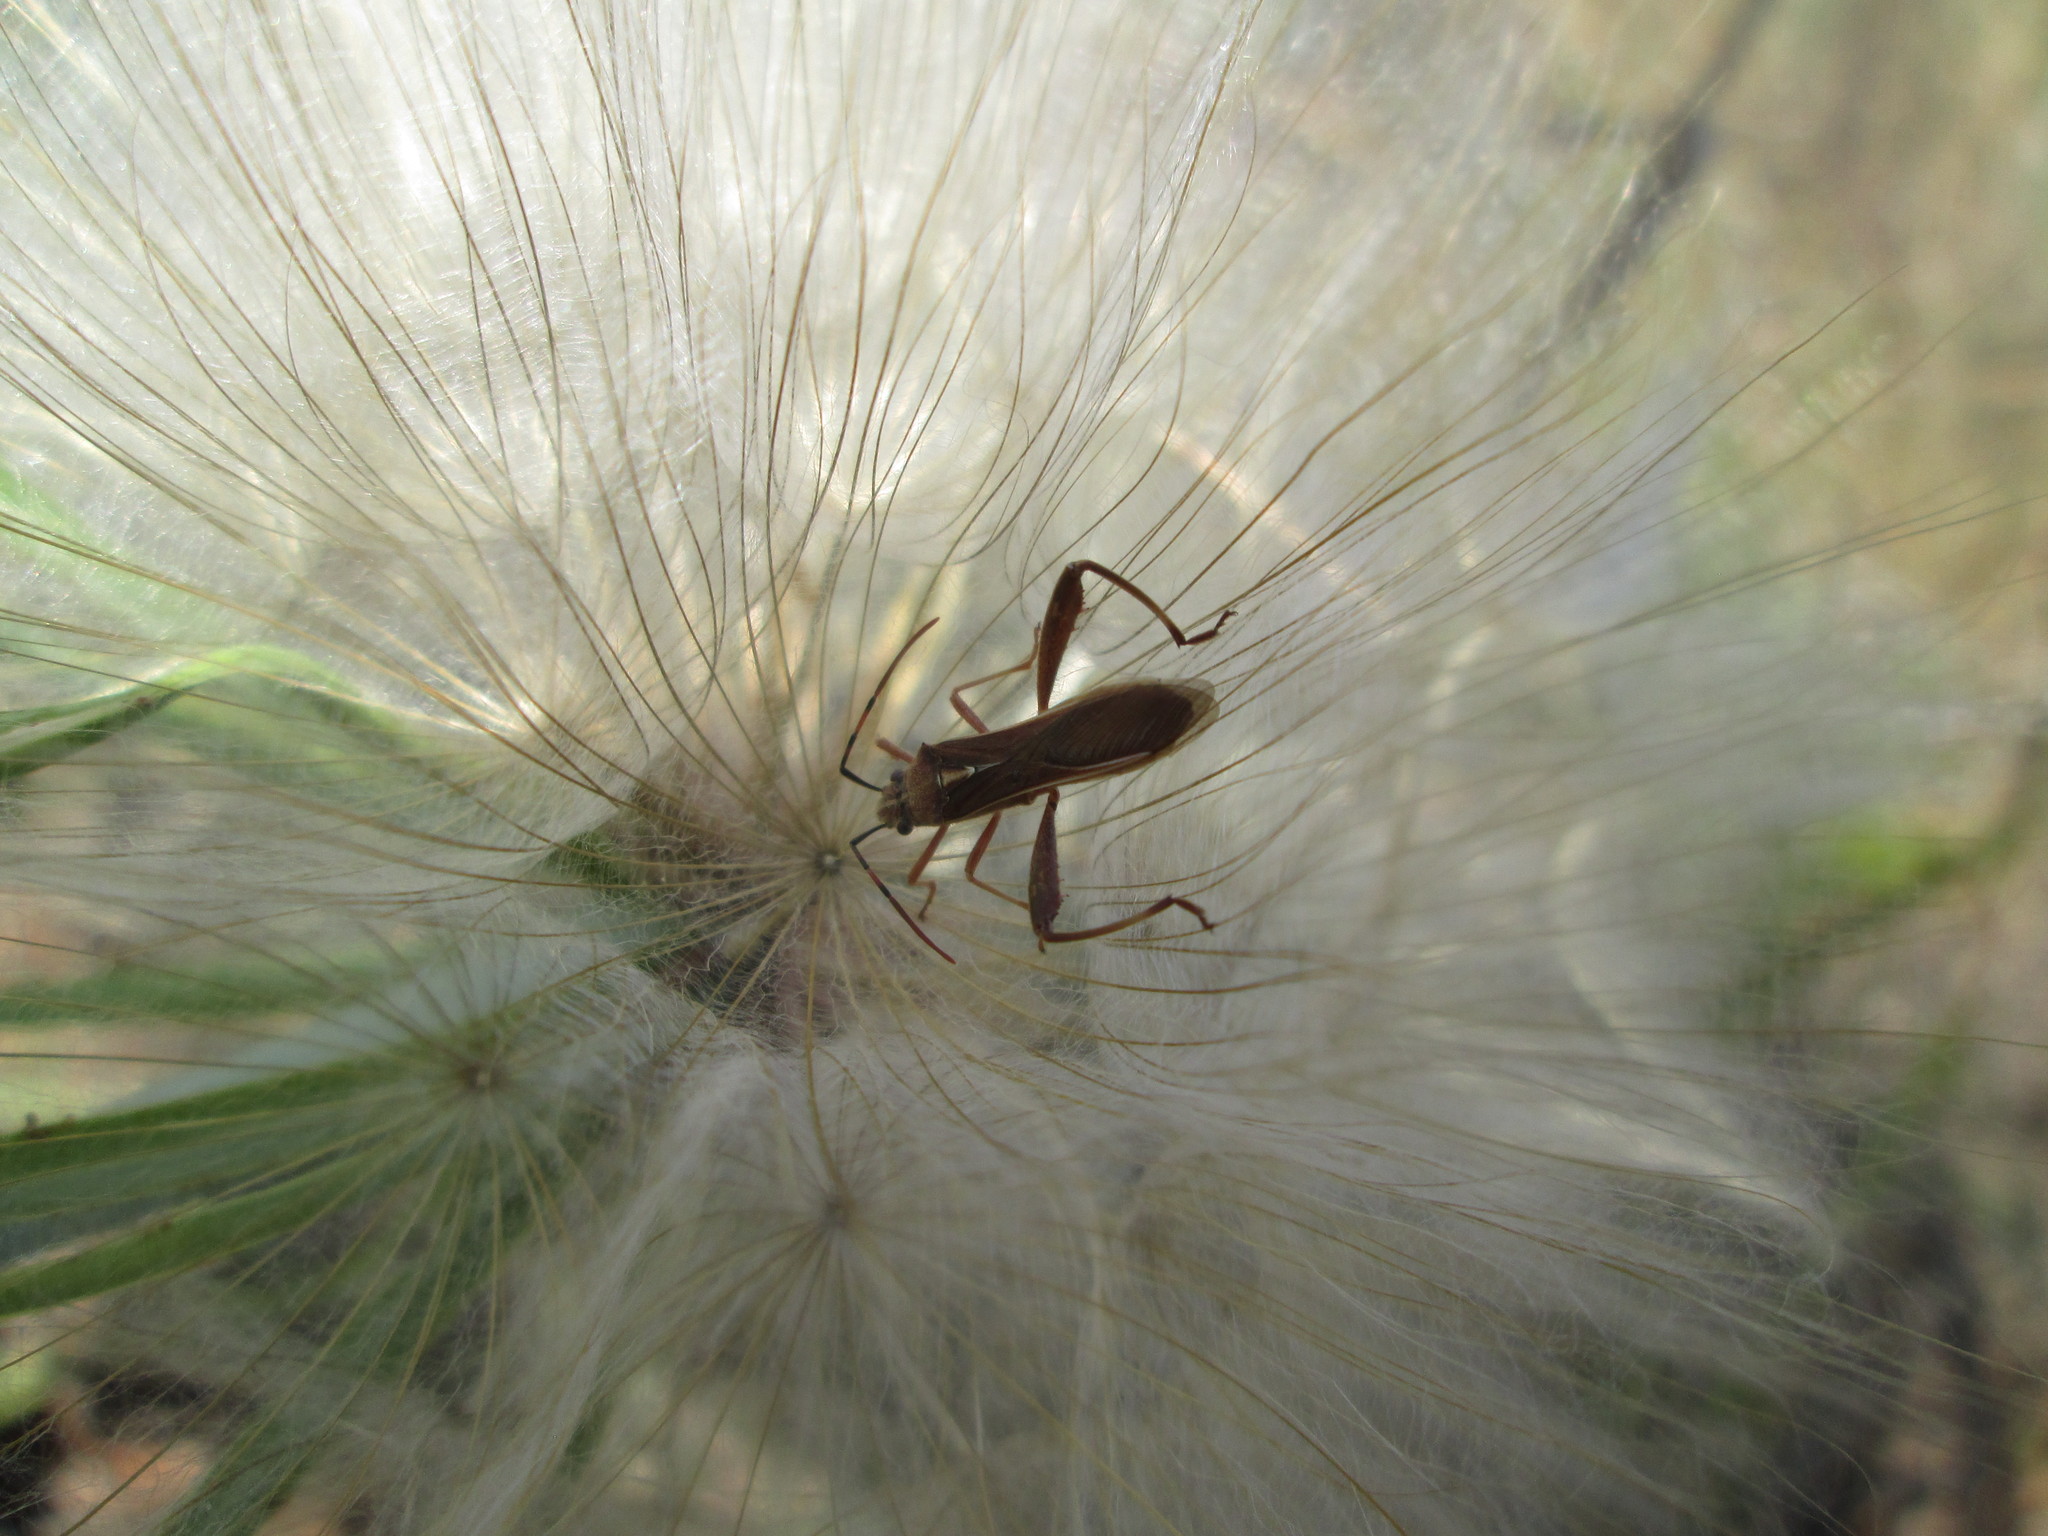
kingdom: Animalia
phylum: Arthropoda
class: Insecta
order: Hemiptera
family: Alydidae
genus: Mirperus
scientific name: Mirperus jaculus
